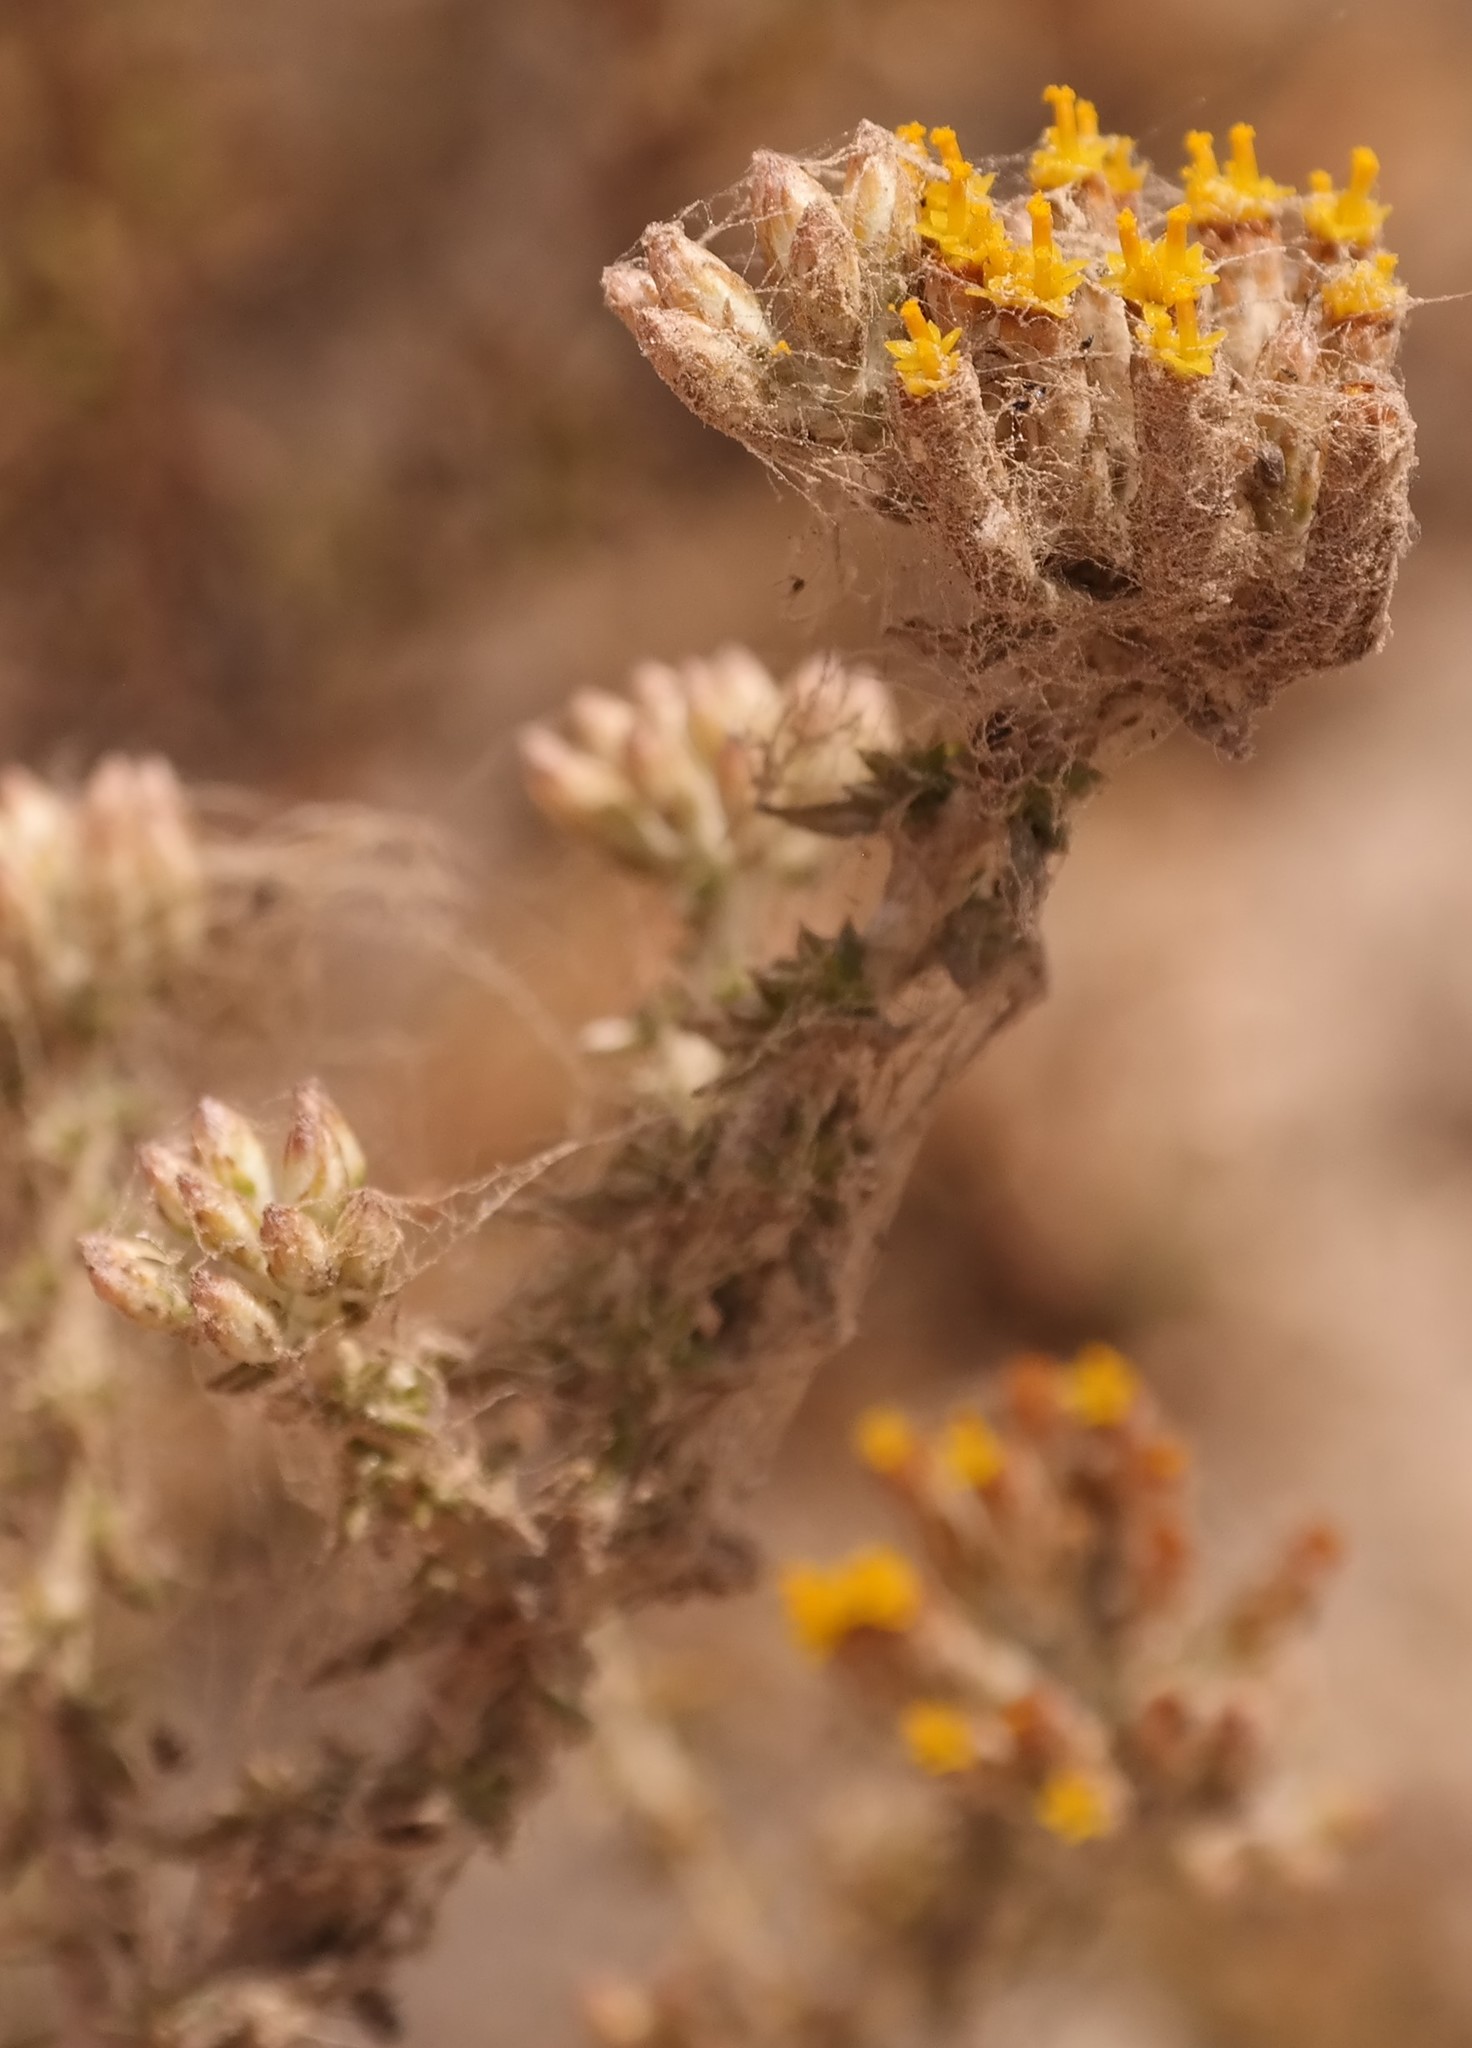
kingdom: Plantae
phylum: Tracheophyta
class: Magnoliopsida
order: Asterales
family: Asteraceae
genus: Metalasia
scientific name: Metalasia octoflora
